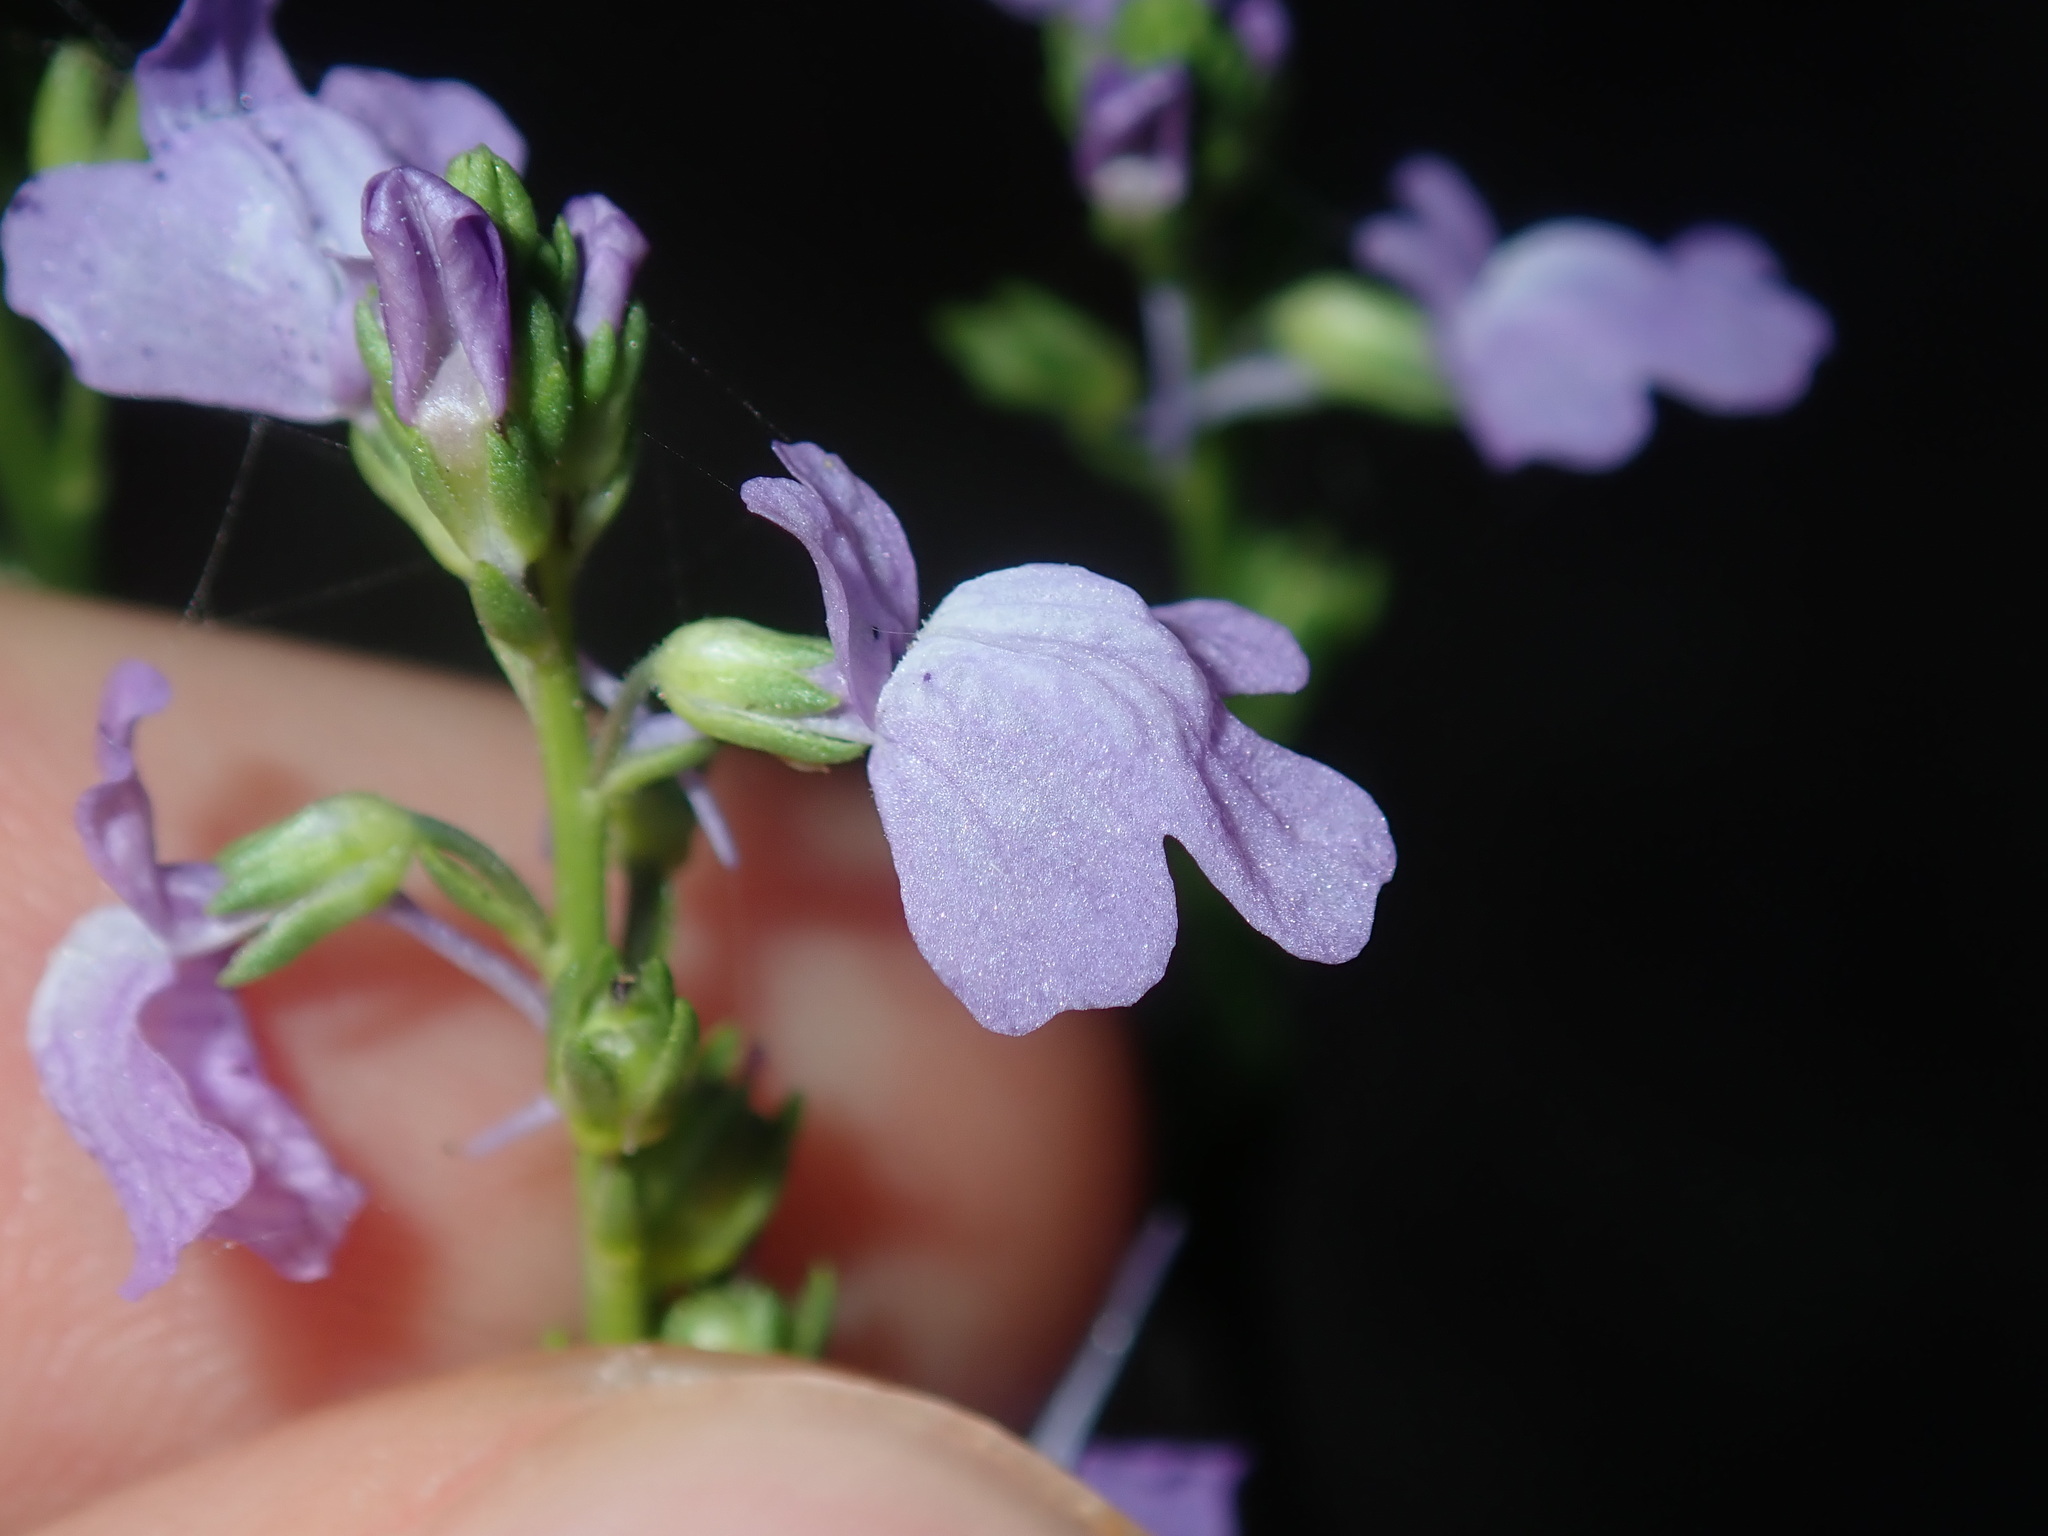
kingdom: Plantae
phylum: Tracheophyta
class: Magnoliopsida
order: Lamiales
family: Plantaginaceae
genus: Nuttallanthus
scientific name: Nuttallanthus canadensis
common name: Blue toadflax
